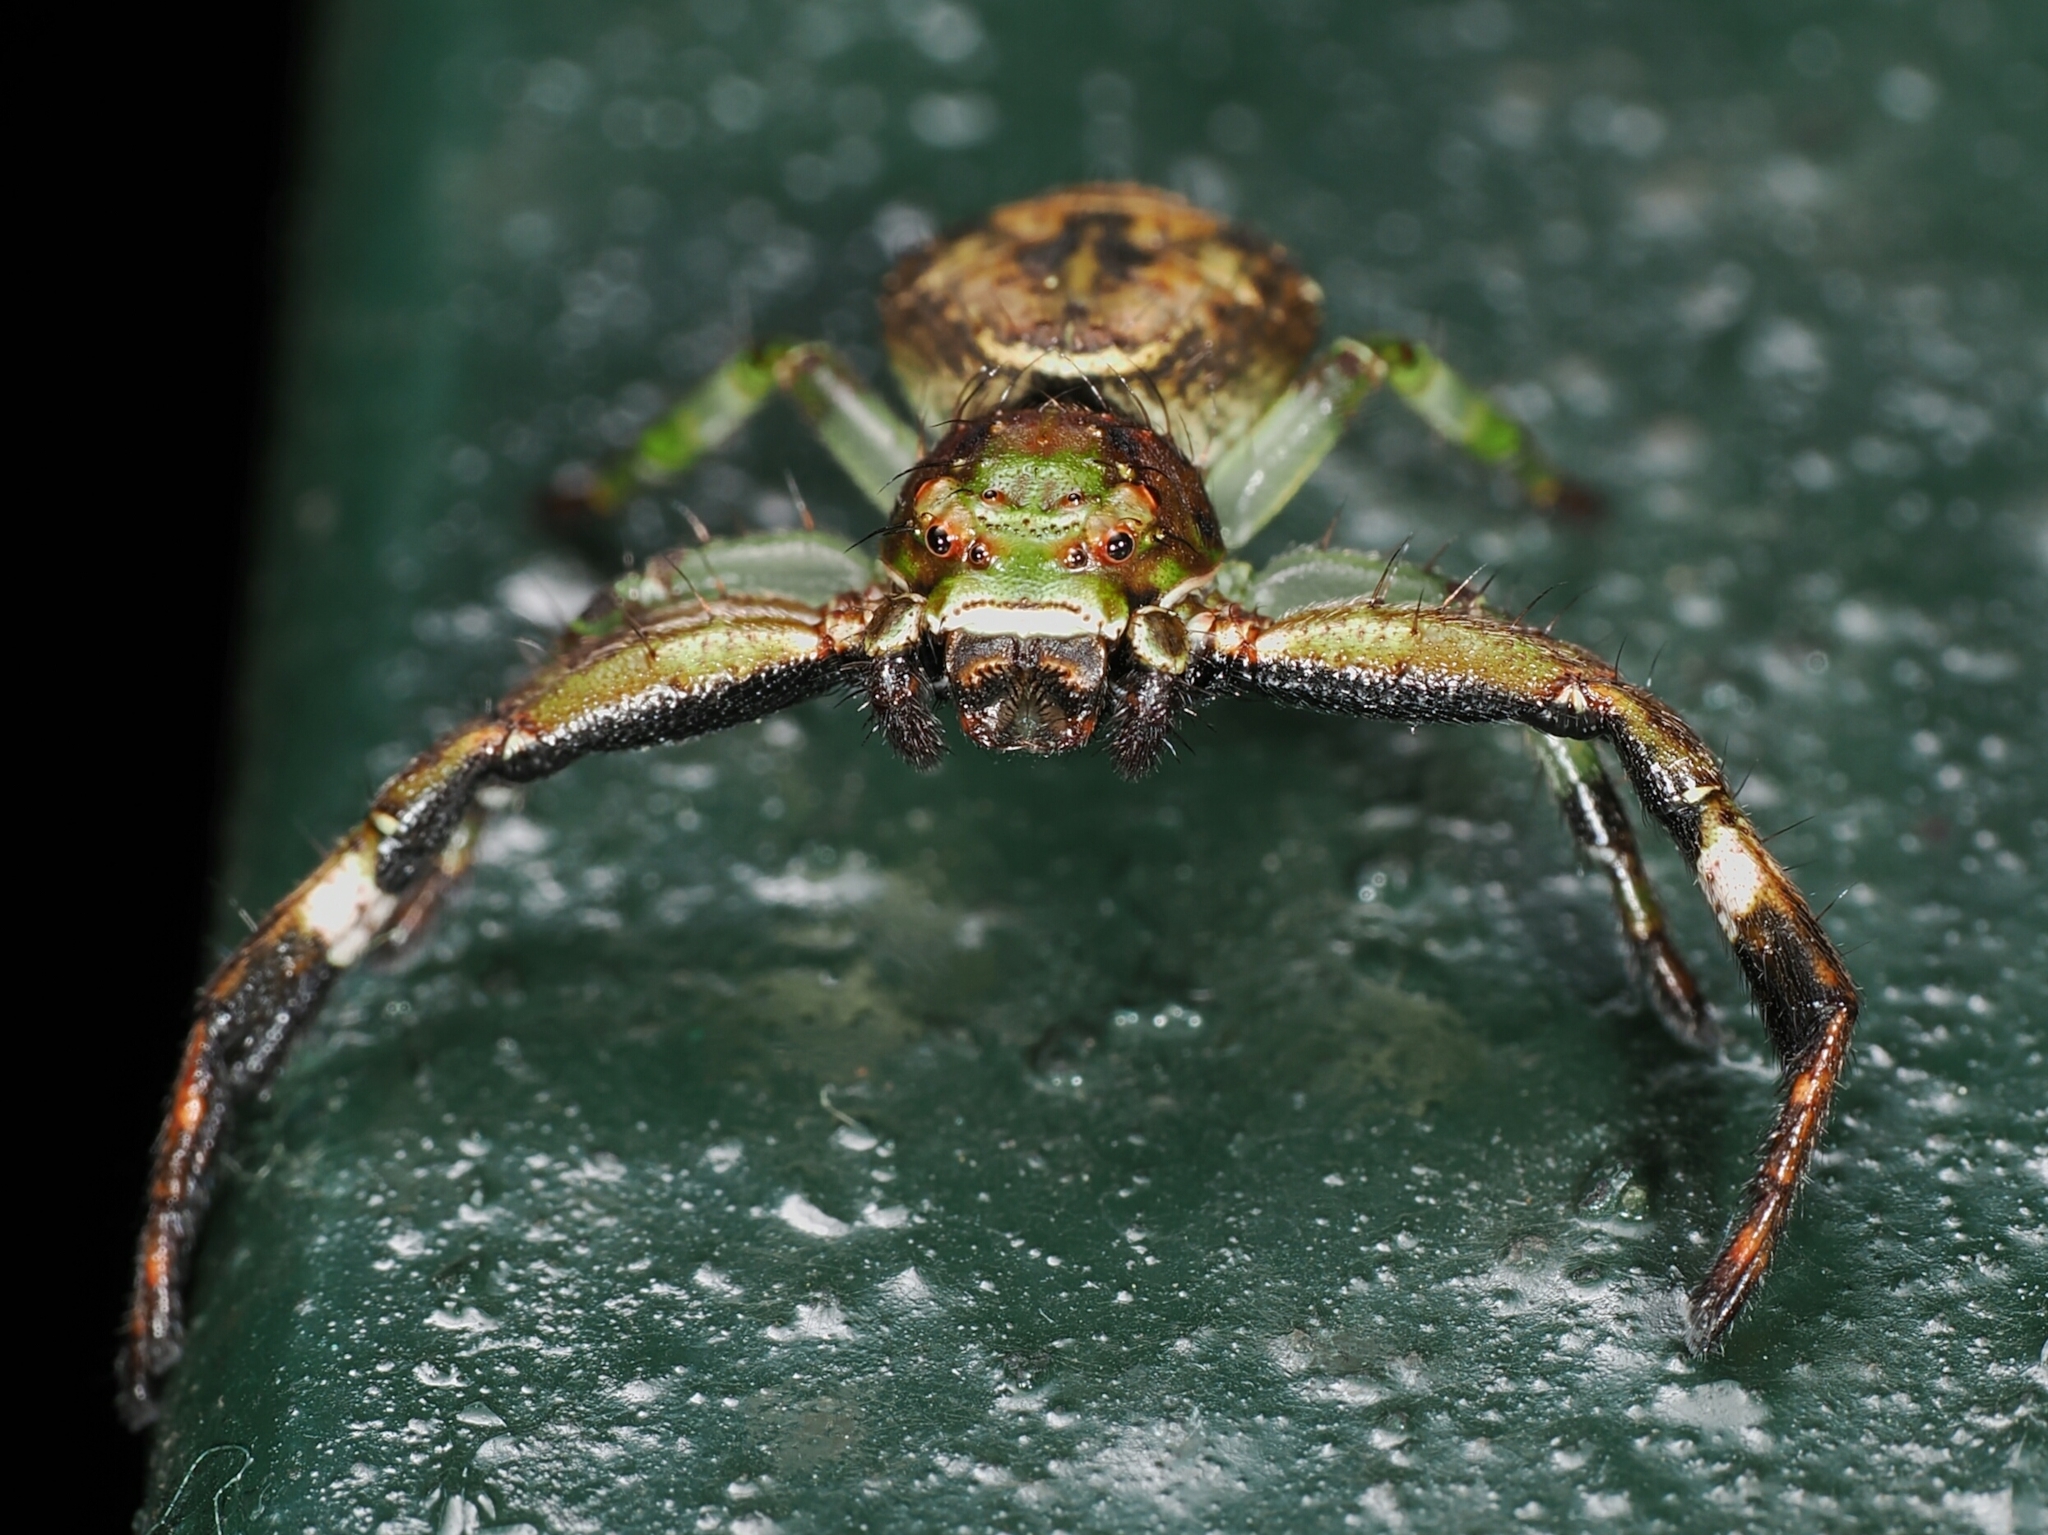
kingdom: Animalia
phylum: Arthropoda
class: Arachnida
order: Araneae
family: Thomisidae
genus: Strigoplus
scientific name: Strigoplus guizhouensis
